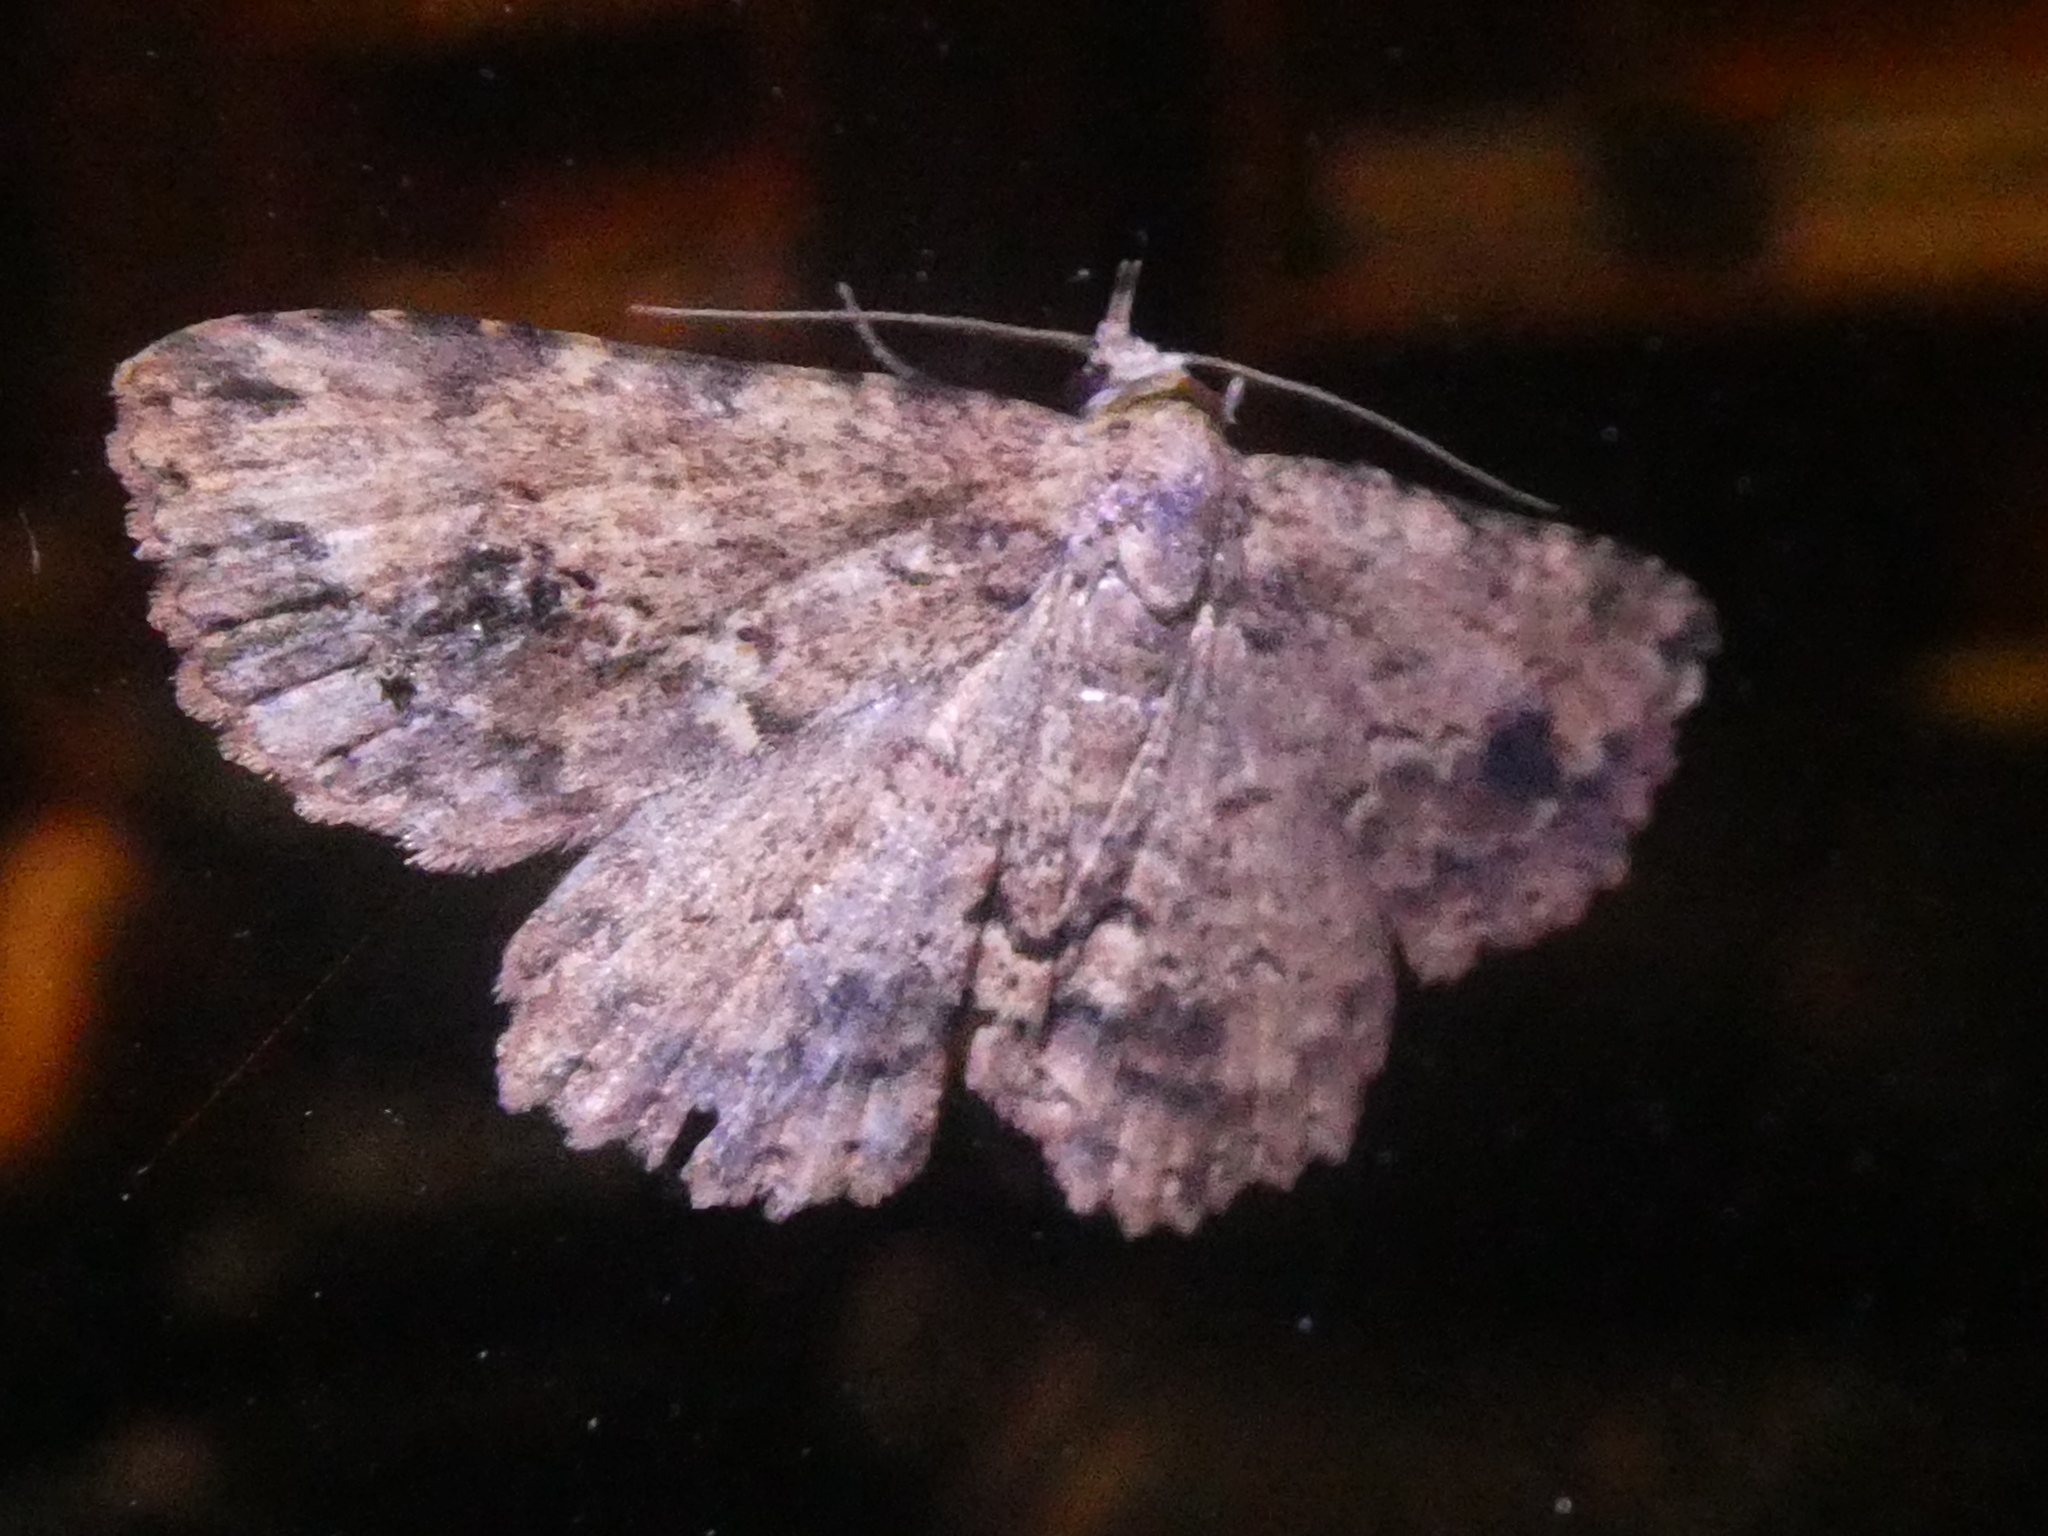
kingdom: Animalia
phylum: Arthropoda
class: Insecta
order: Lepidoptera
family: Erebidae
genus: Artigisa
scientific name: Artigisa melanephele
